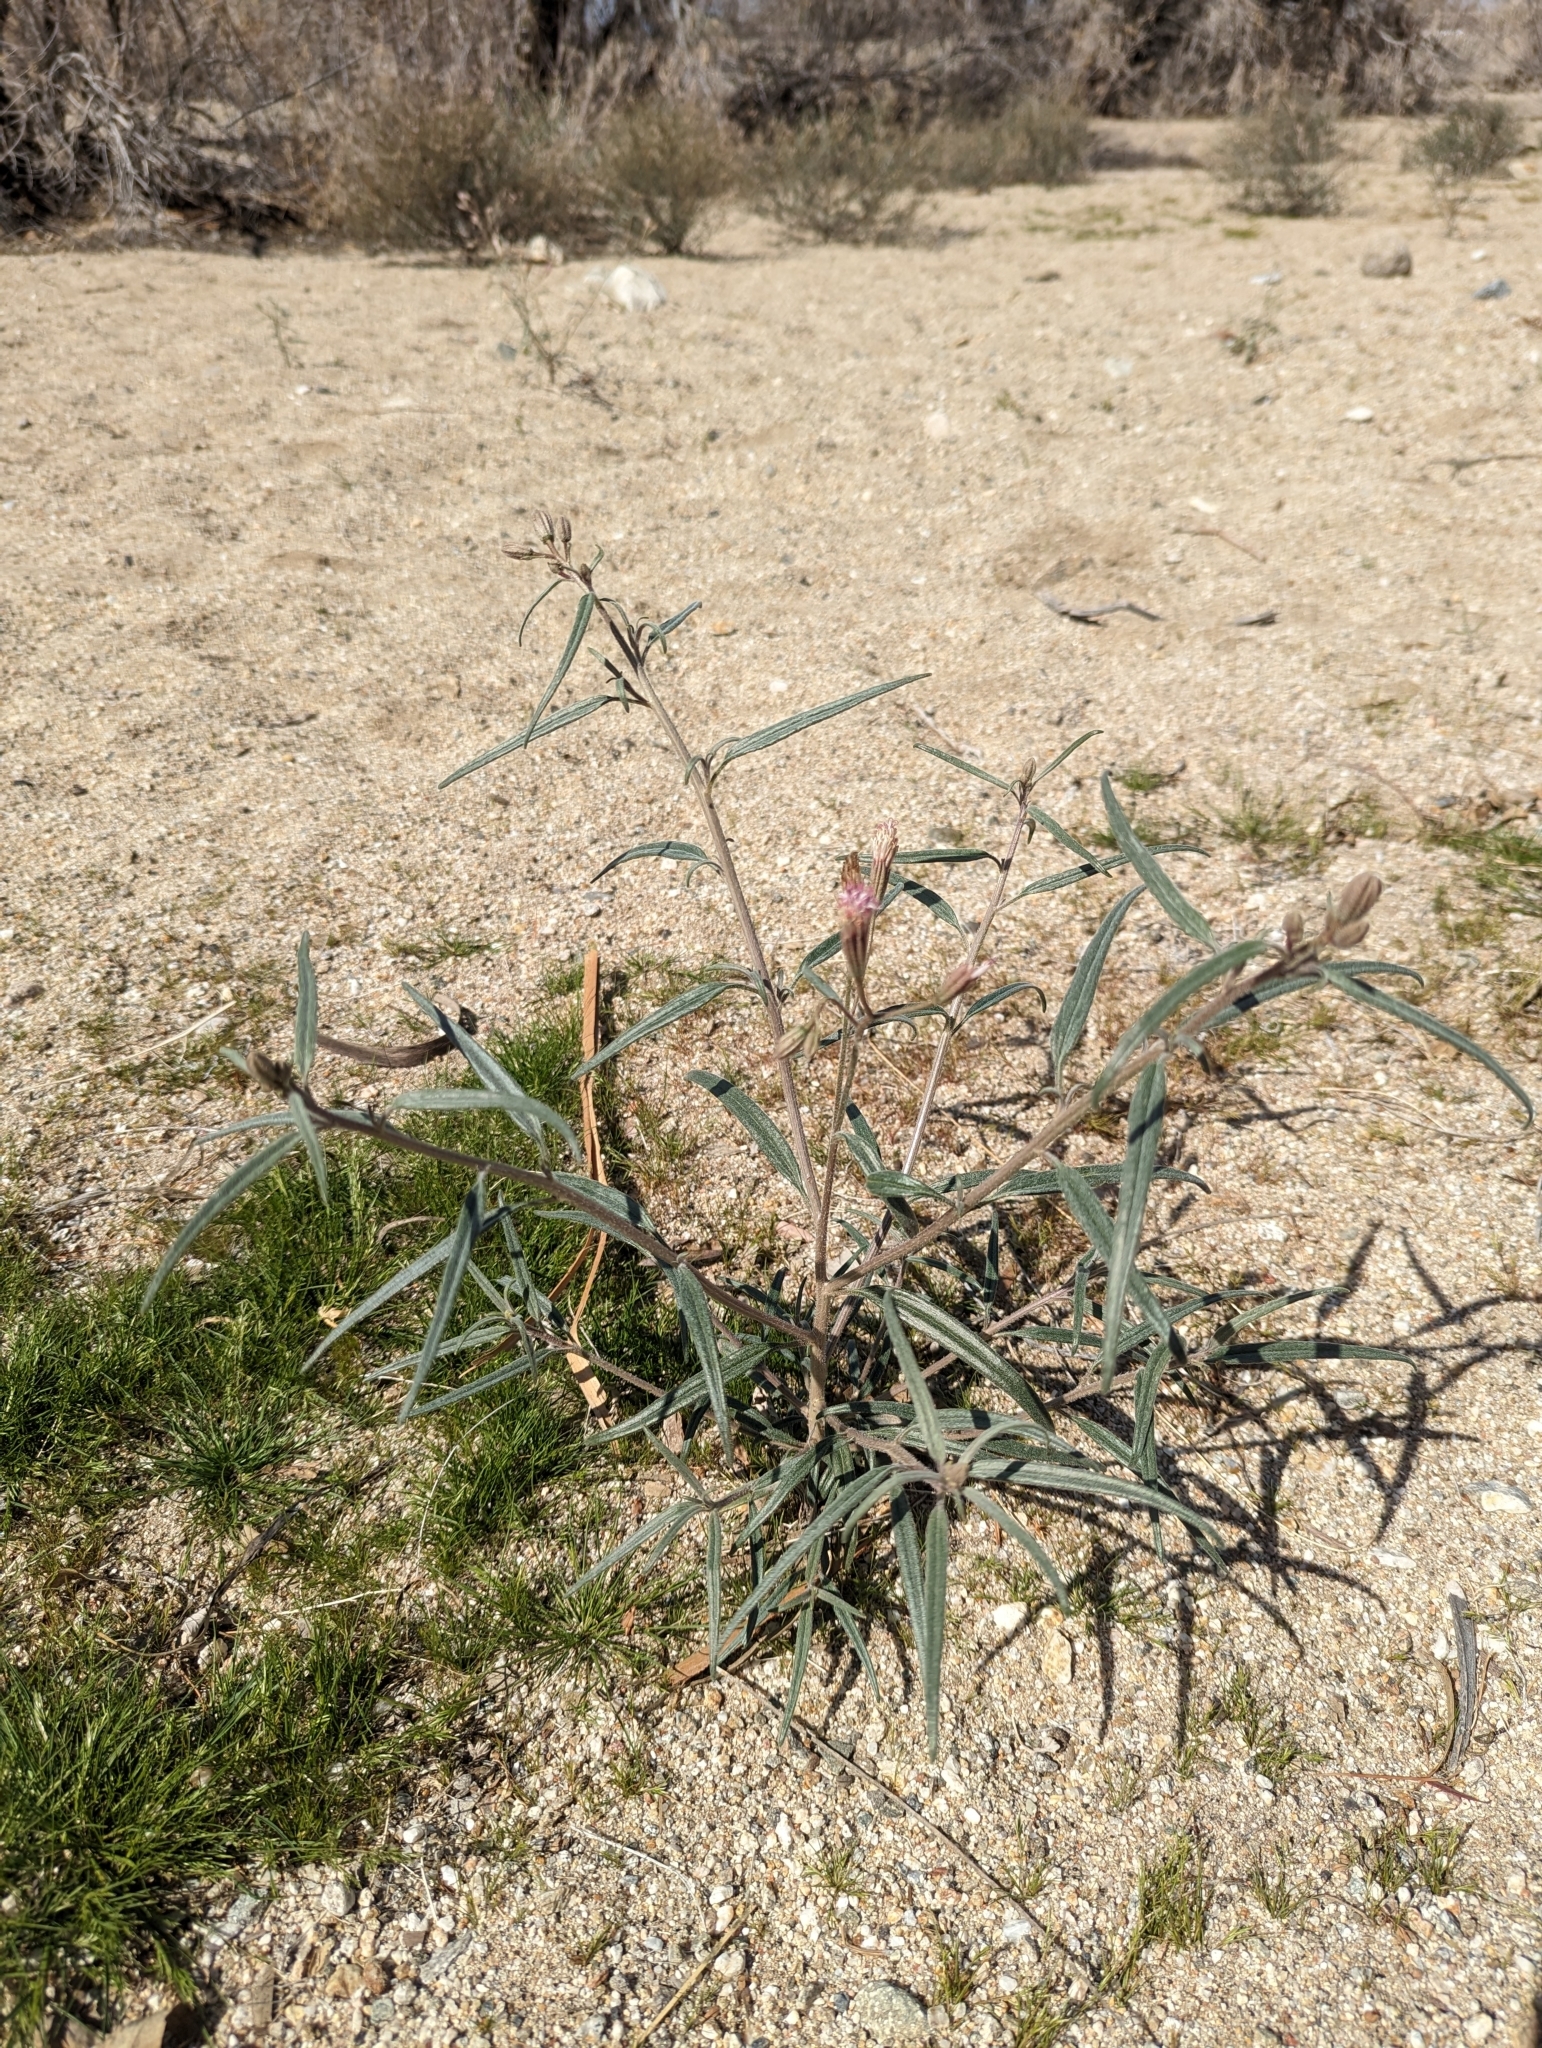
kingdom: Plantae
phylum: Tracheophyta
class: Magnoliopsida
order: Asterales
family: Asteraceae
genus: Palafoxia
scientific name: Palafoxia arida
